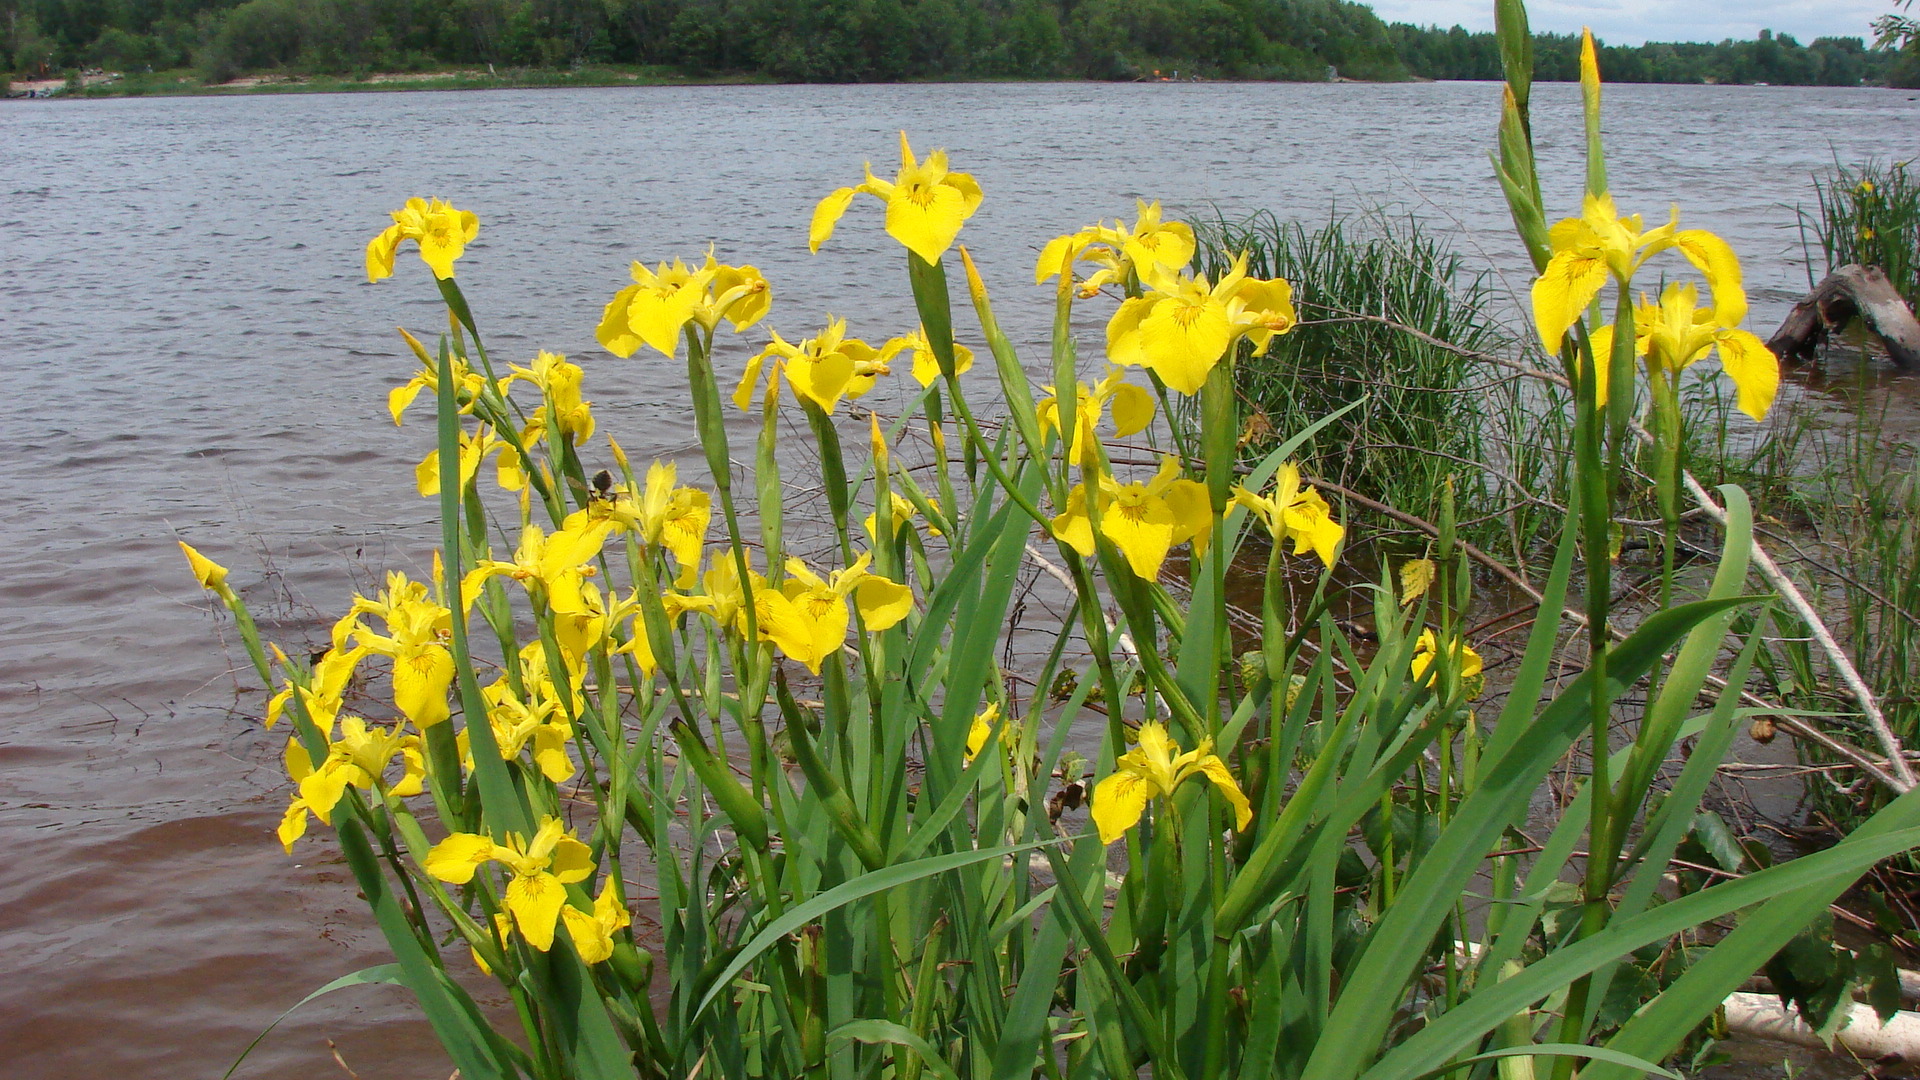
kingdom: Plantae
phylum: Tracheophyta
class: Liliopsida
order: Asparagales
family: Iridaceae
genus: Iris
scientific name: Iris pseudacorus
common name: Yellow flag
